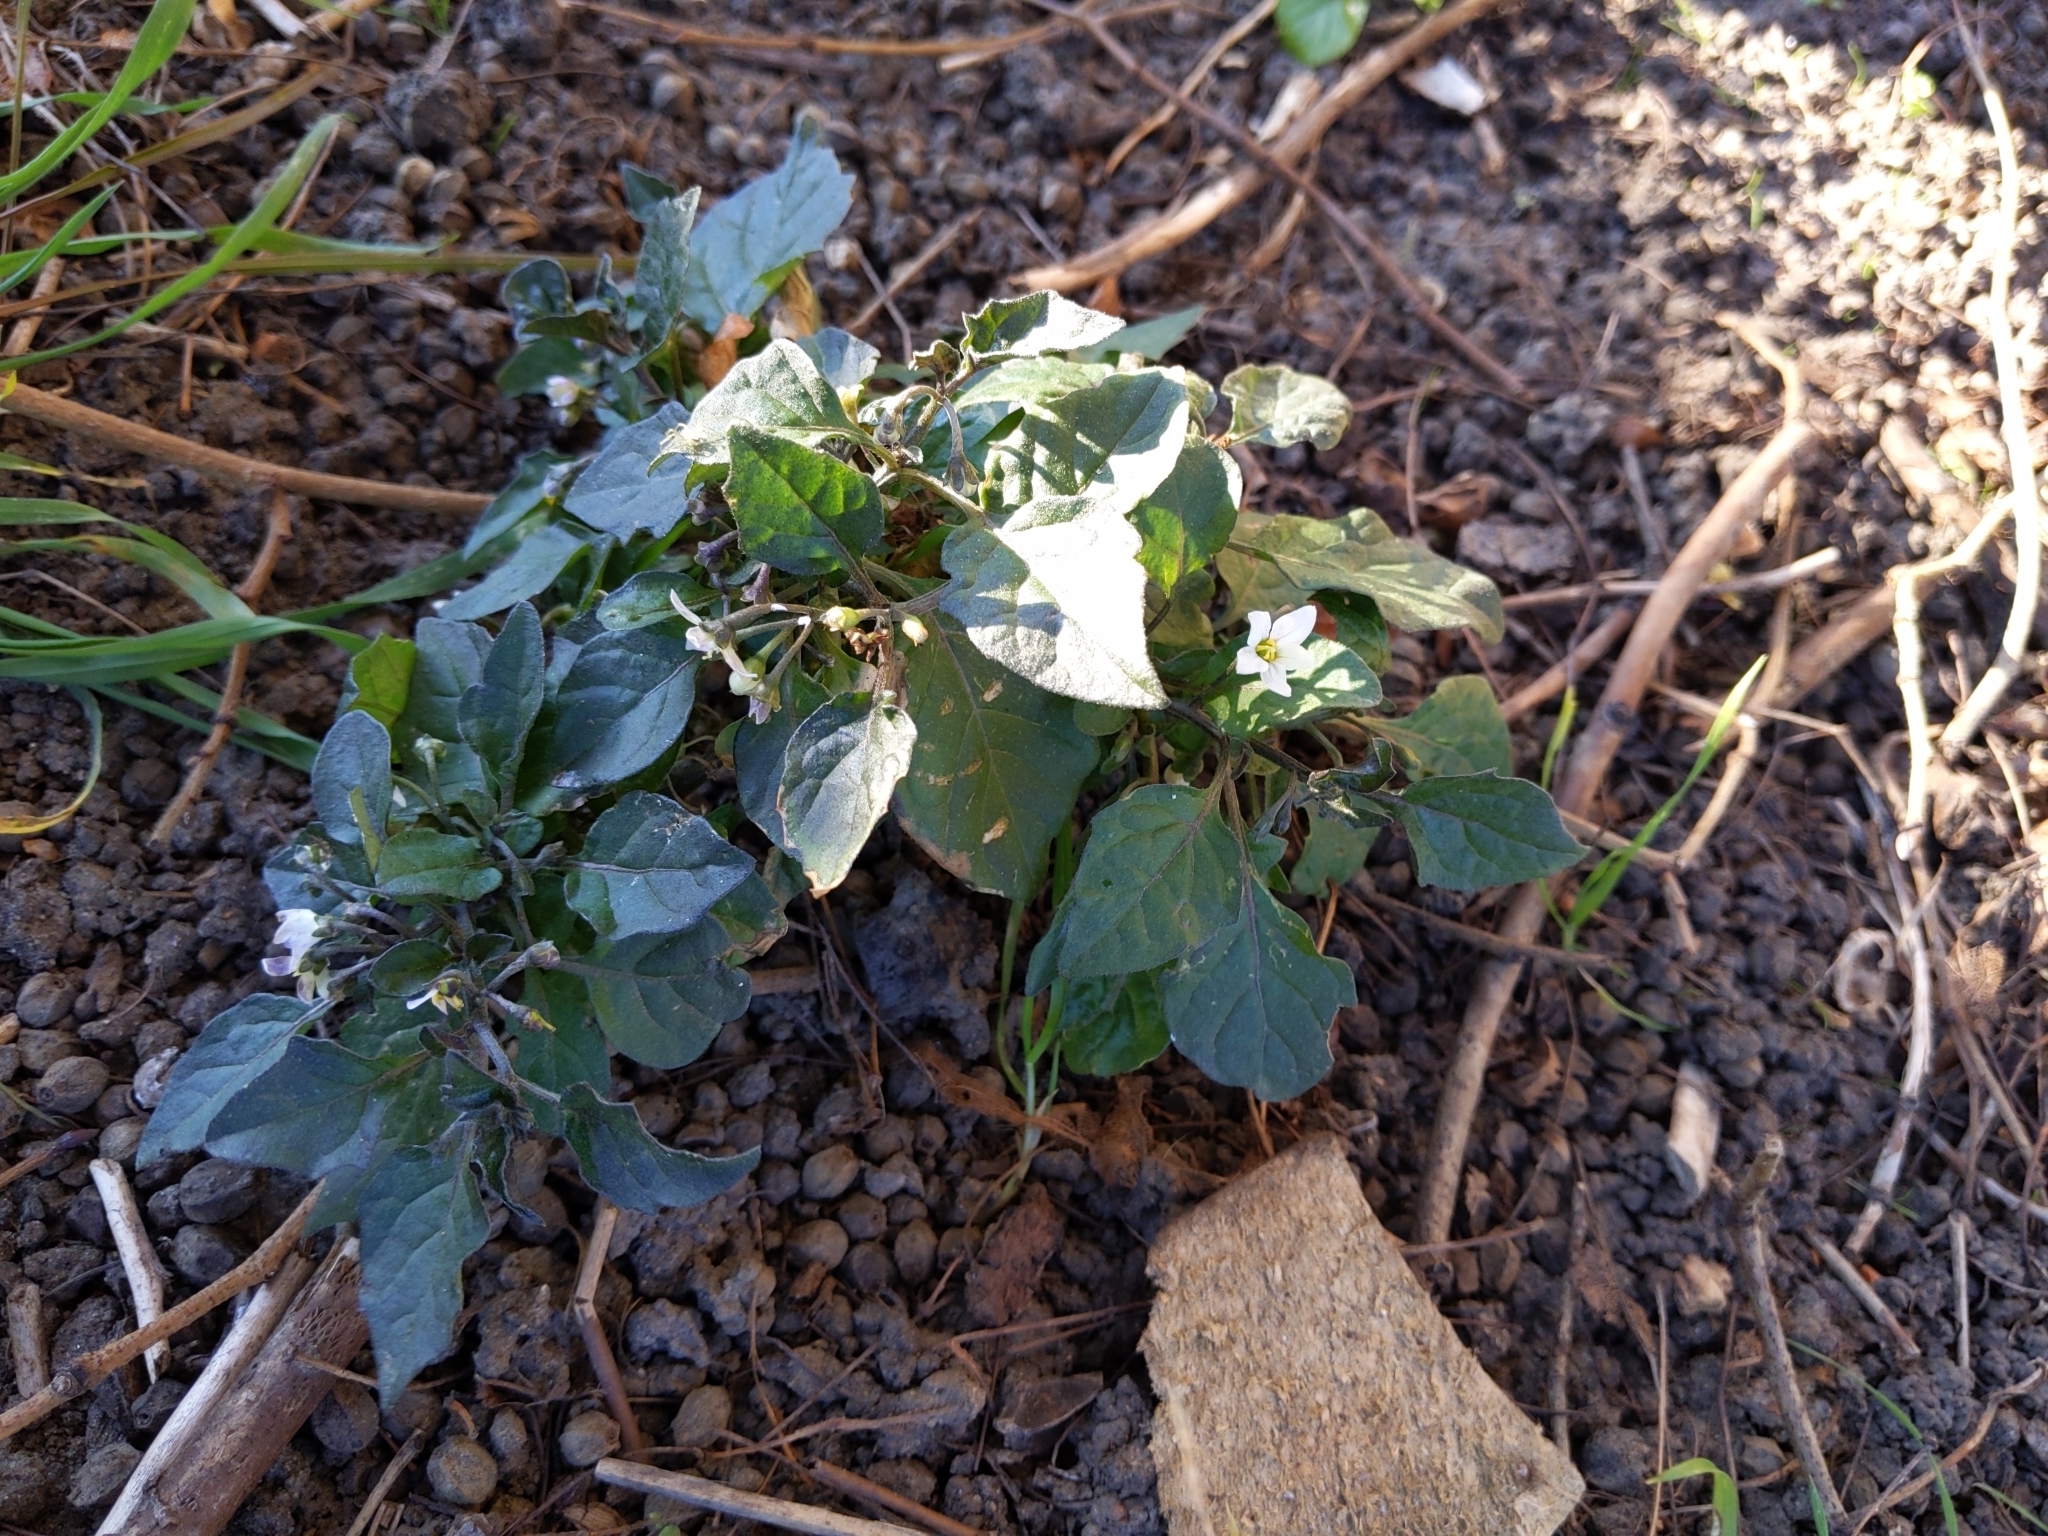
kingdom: Plantae
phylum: Tracheophyta
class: Magnoliopsida
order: Solanales
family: Solanaceae
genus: Solanum
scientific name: Solanum nigrum
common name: Black nightshade
